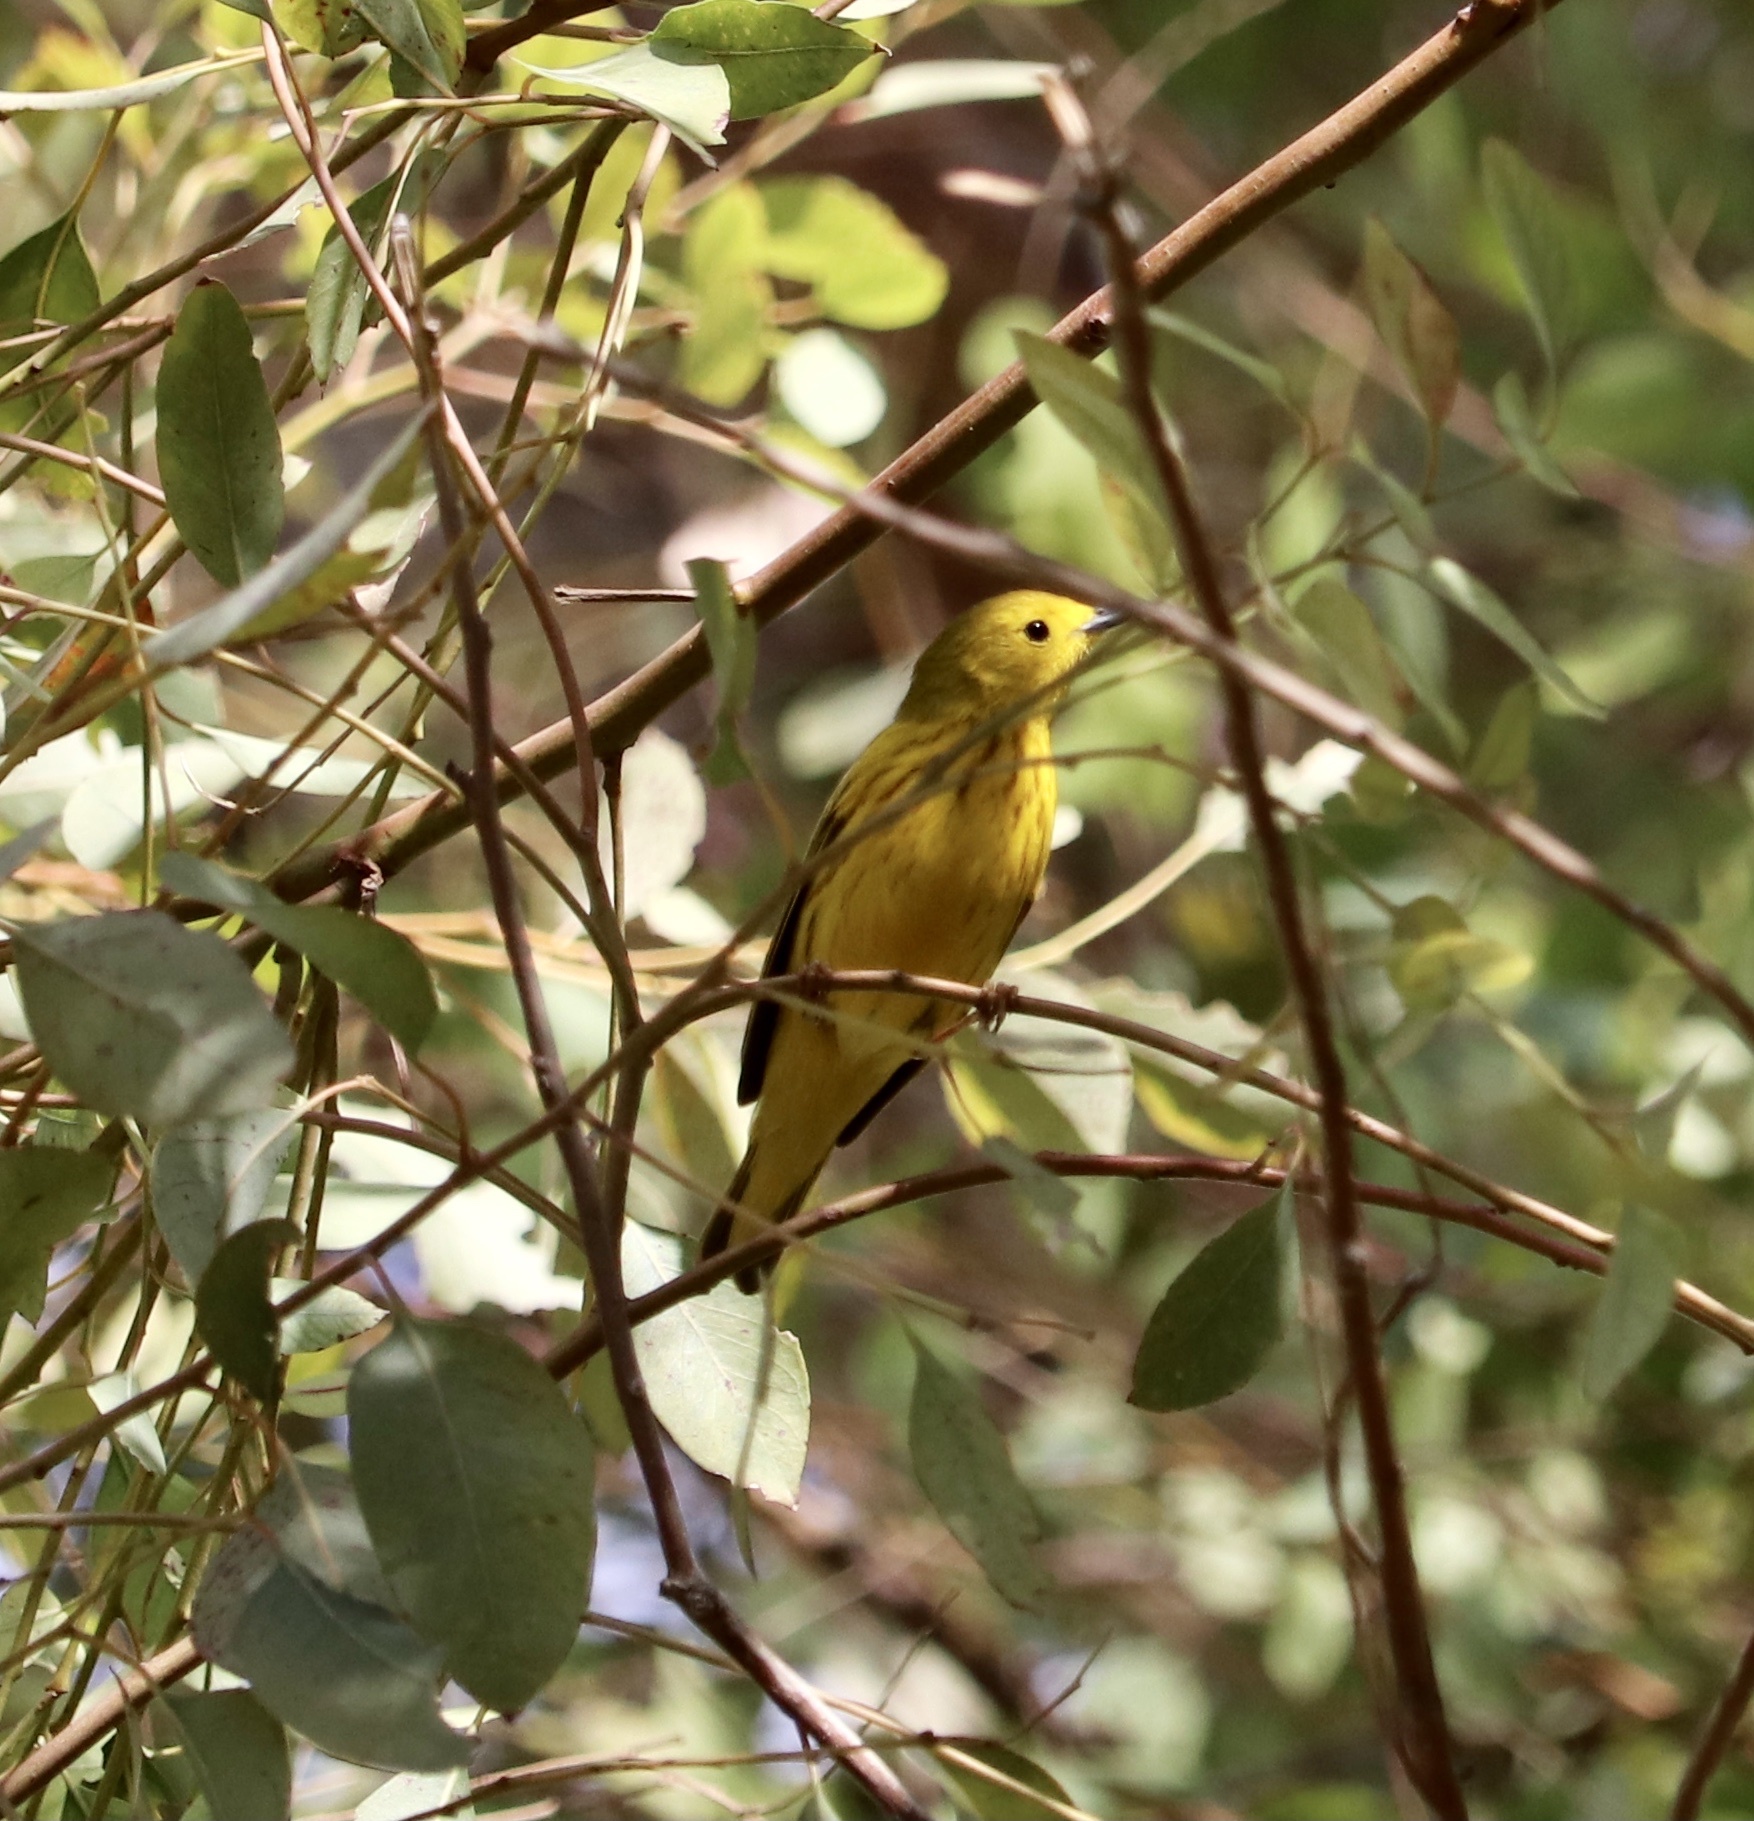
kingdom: Animalia
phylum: Chordata
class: Aves
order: Passeriformes
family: Parulidae
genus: Setophaga
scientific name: Setophaga petechia
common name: Yellow warbler
